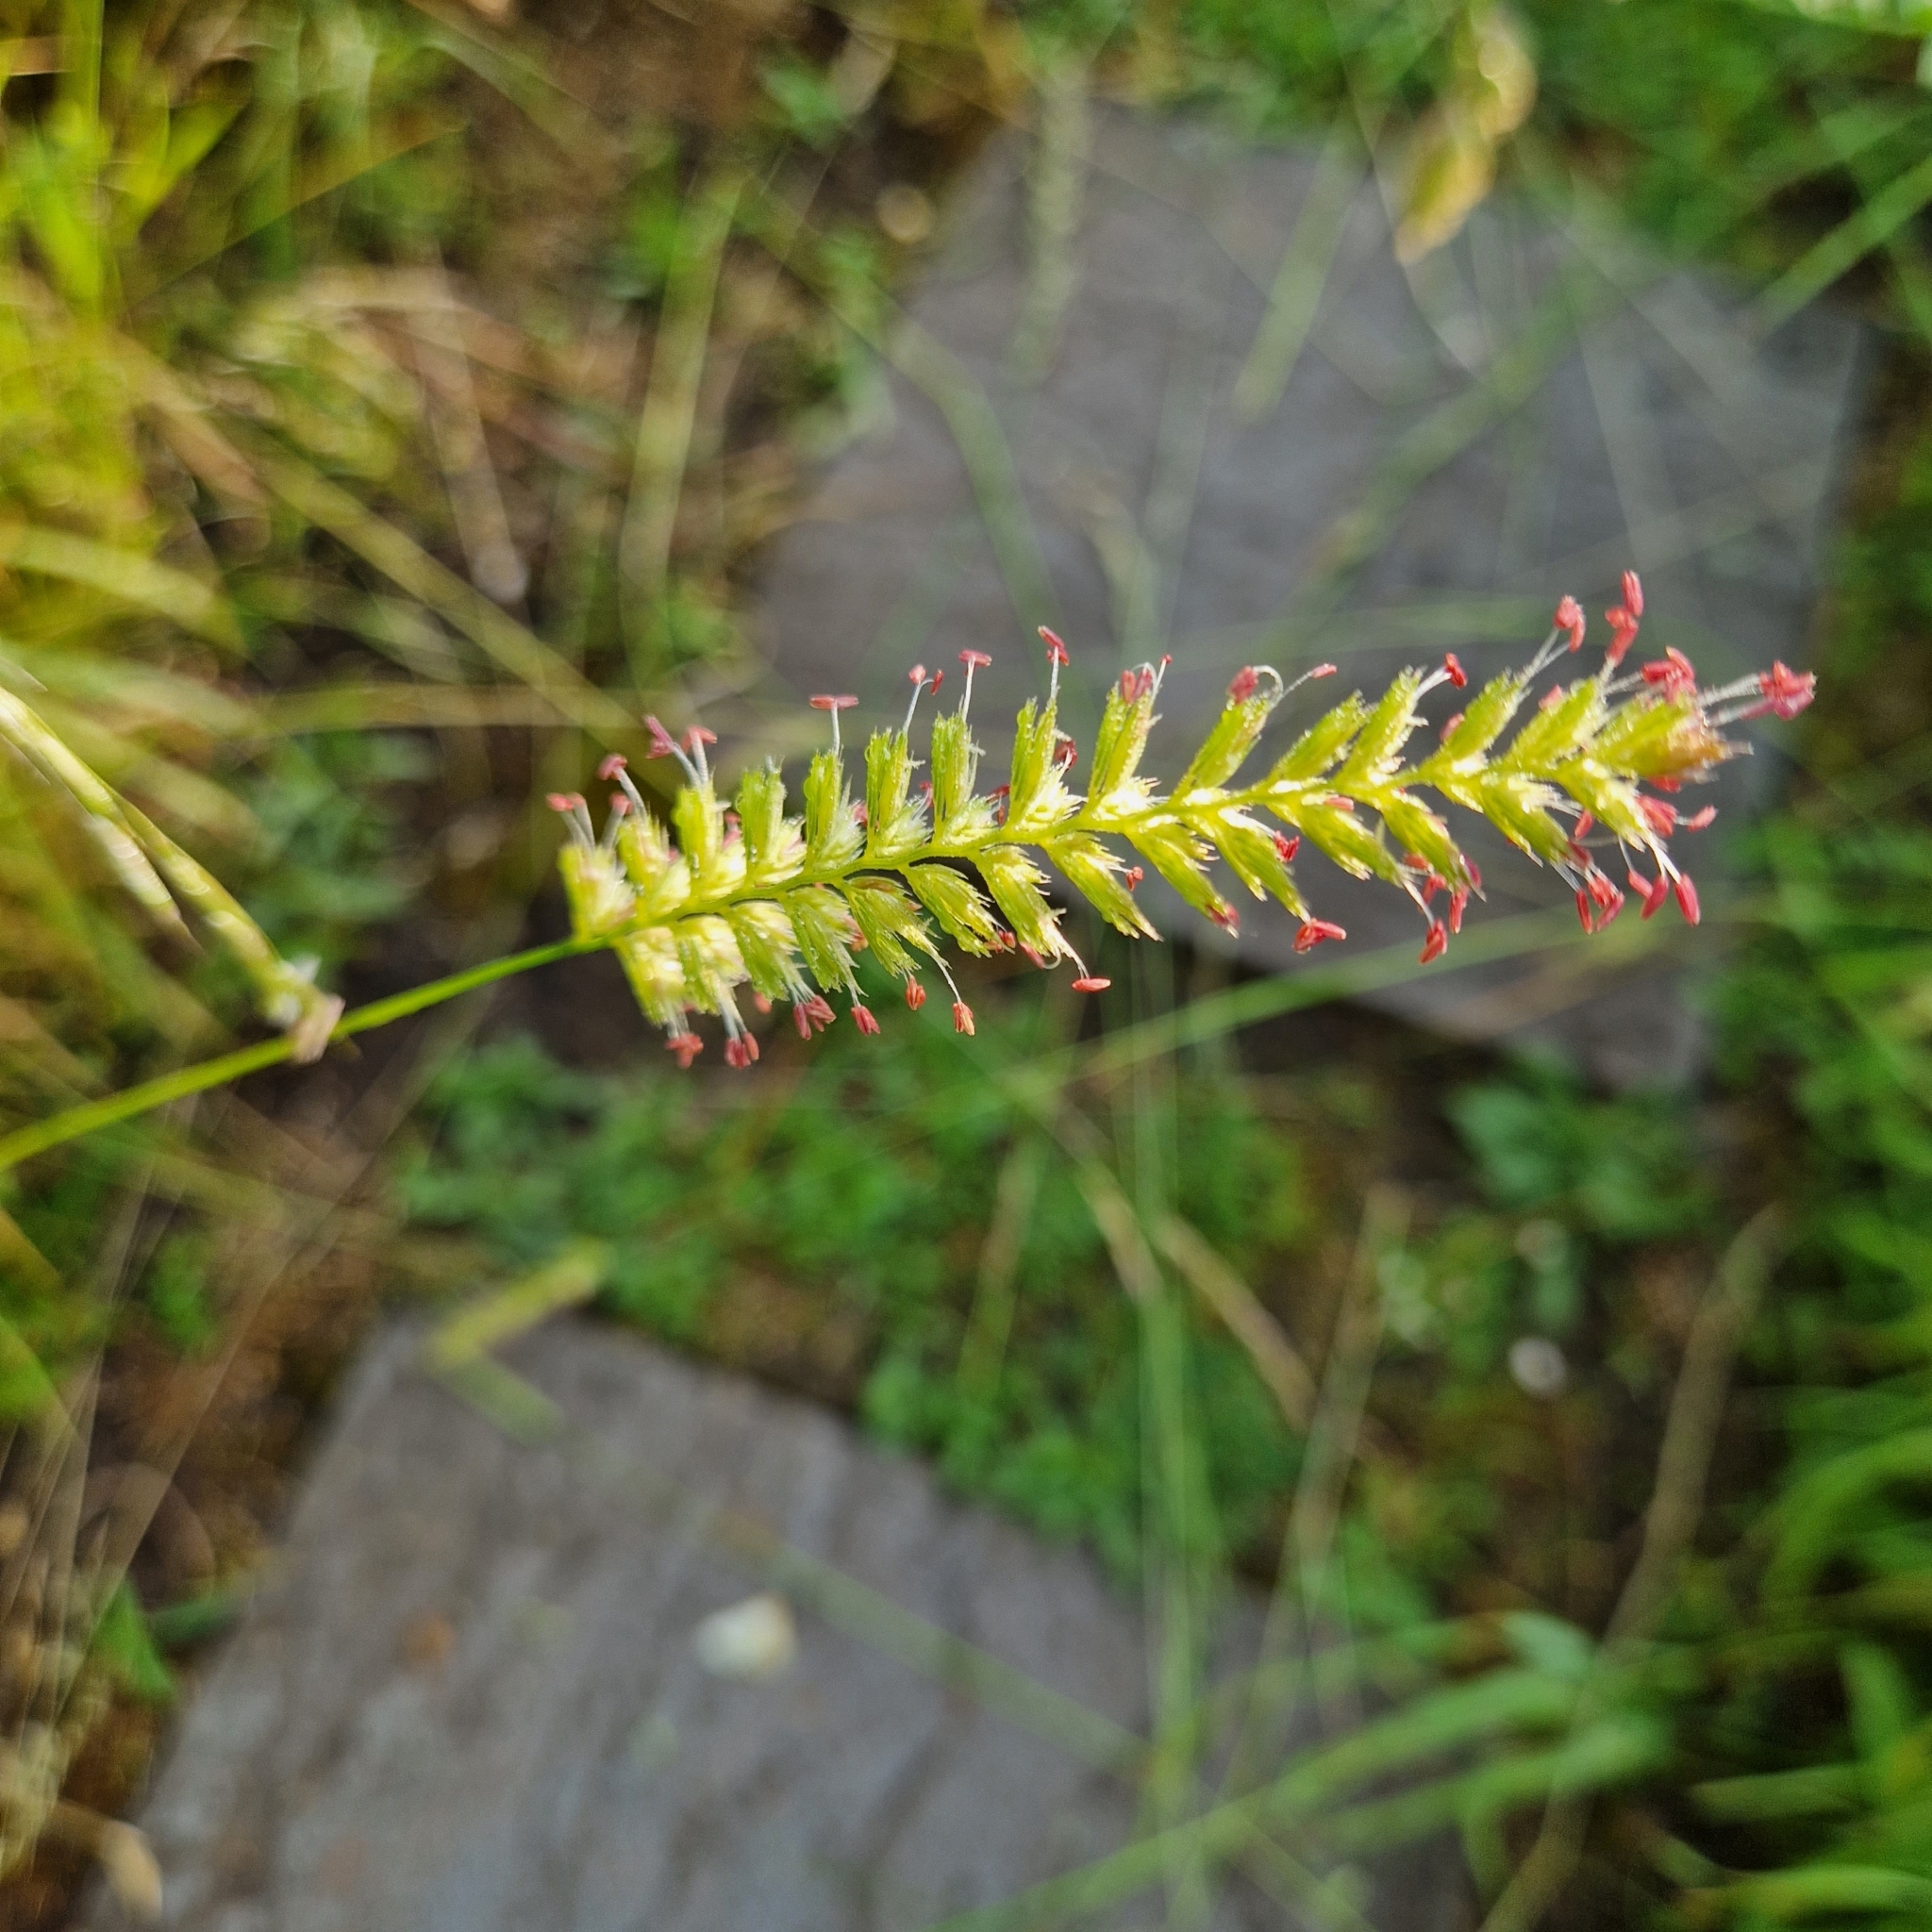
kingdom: Plantae
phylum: Tracheophyta
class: Liliopsida
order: Poales
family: Poaceae
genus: Cynosurus
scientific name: Cynosurus cristatus
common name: Crested dog's-tail
